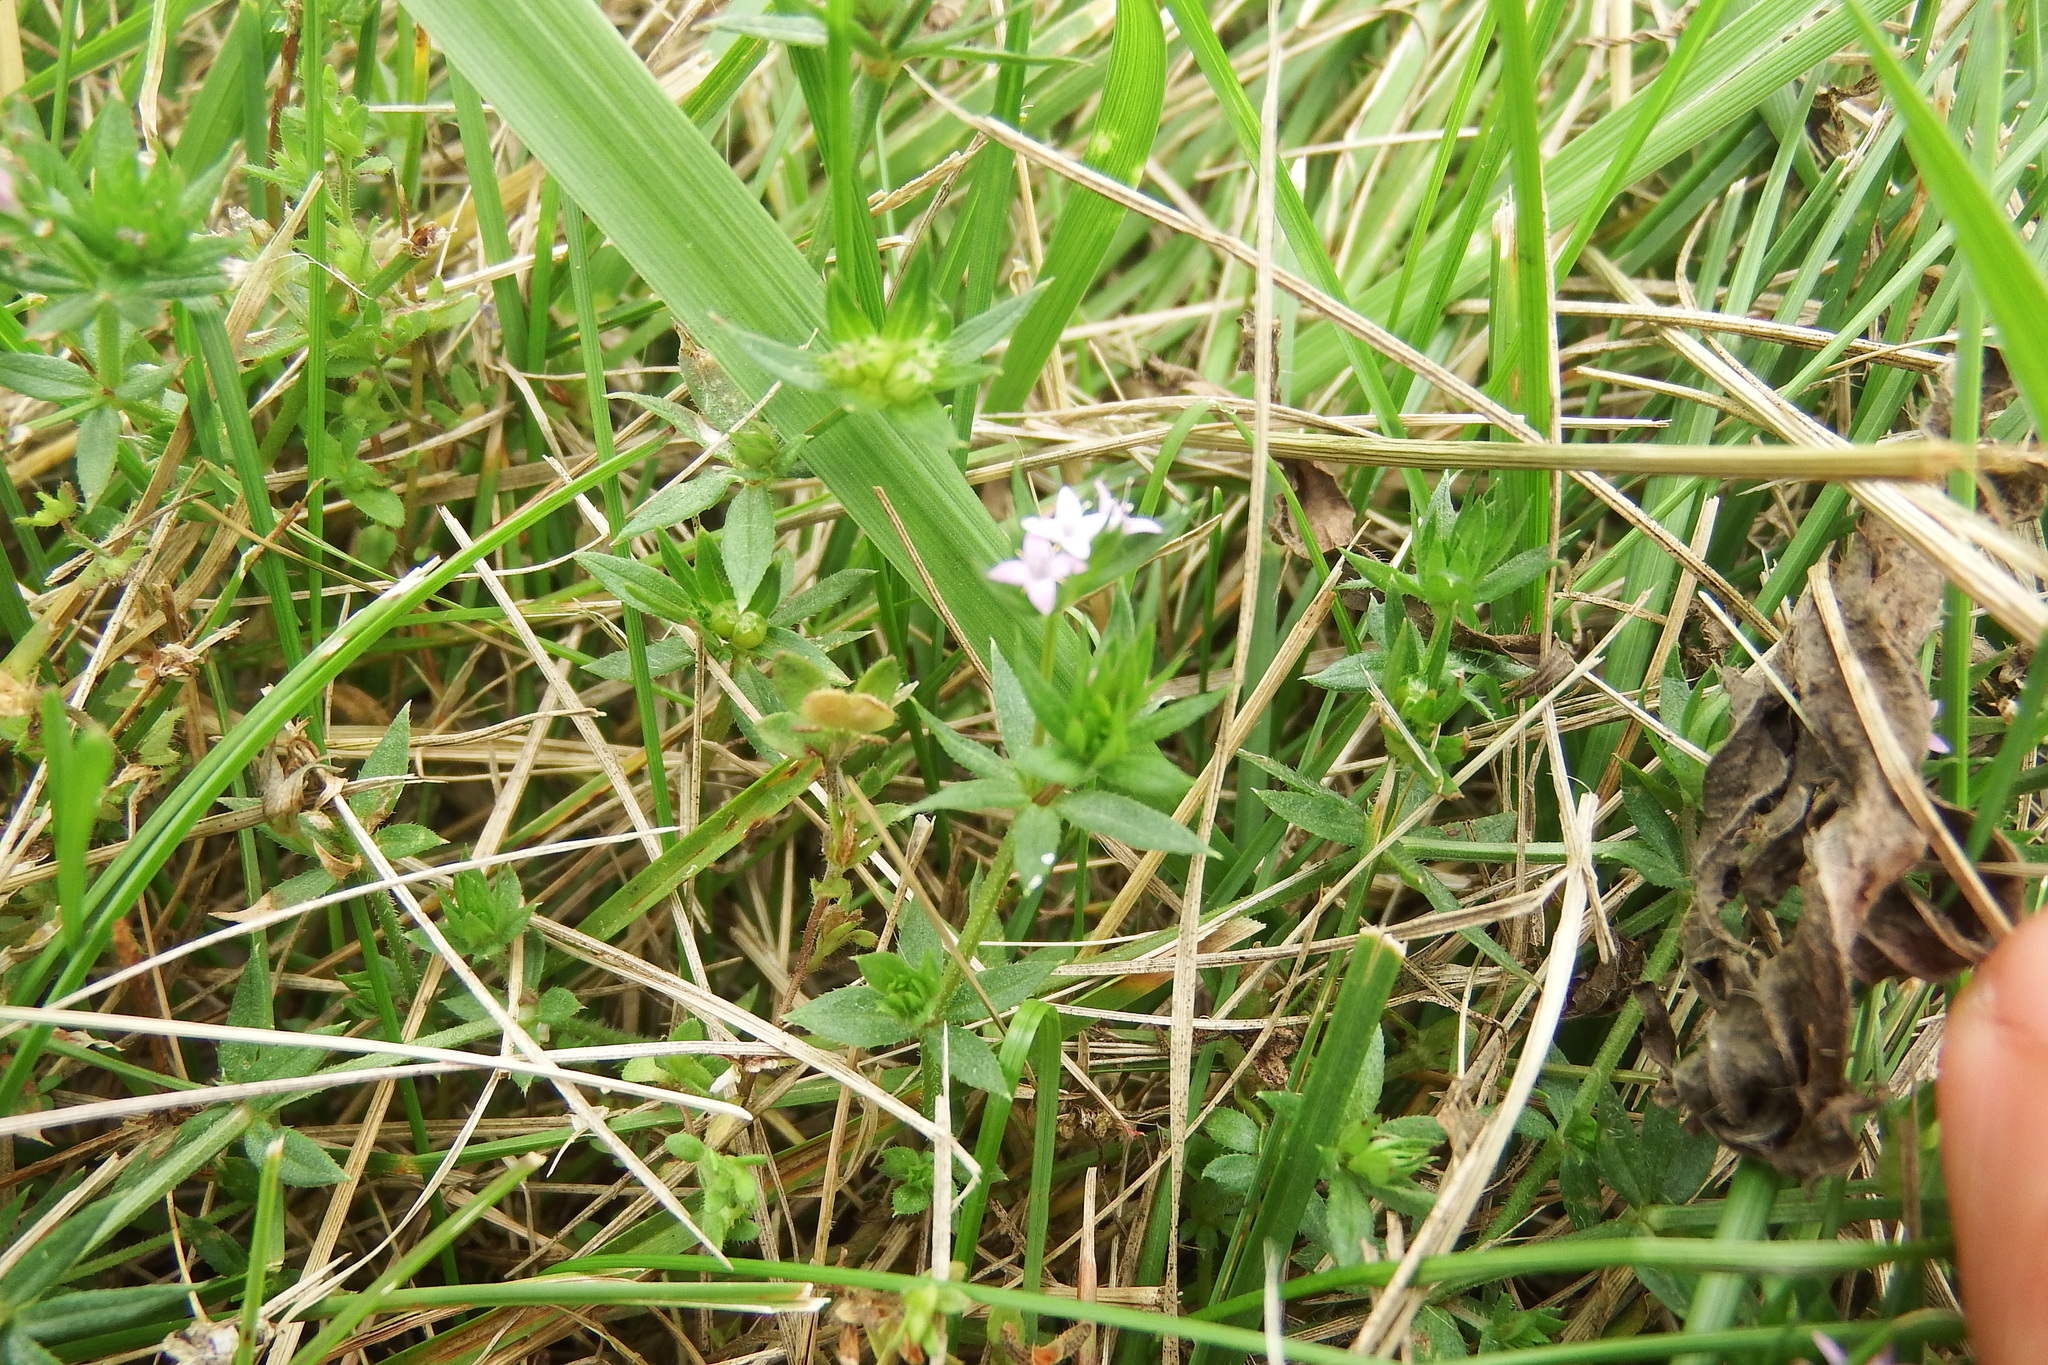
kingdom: Plantae
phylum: Tracheophyta
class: Magnoliopsida
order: Gentianales
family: Rubiaceae
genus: Sherardia
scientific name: Sherardia arvensis
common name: Field madder
